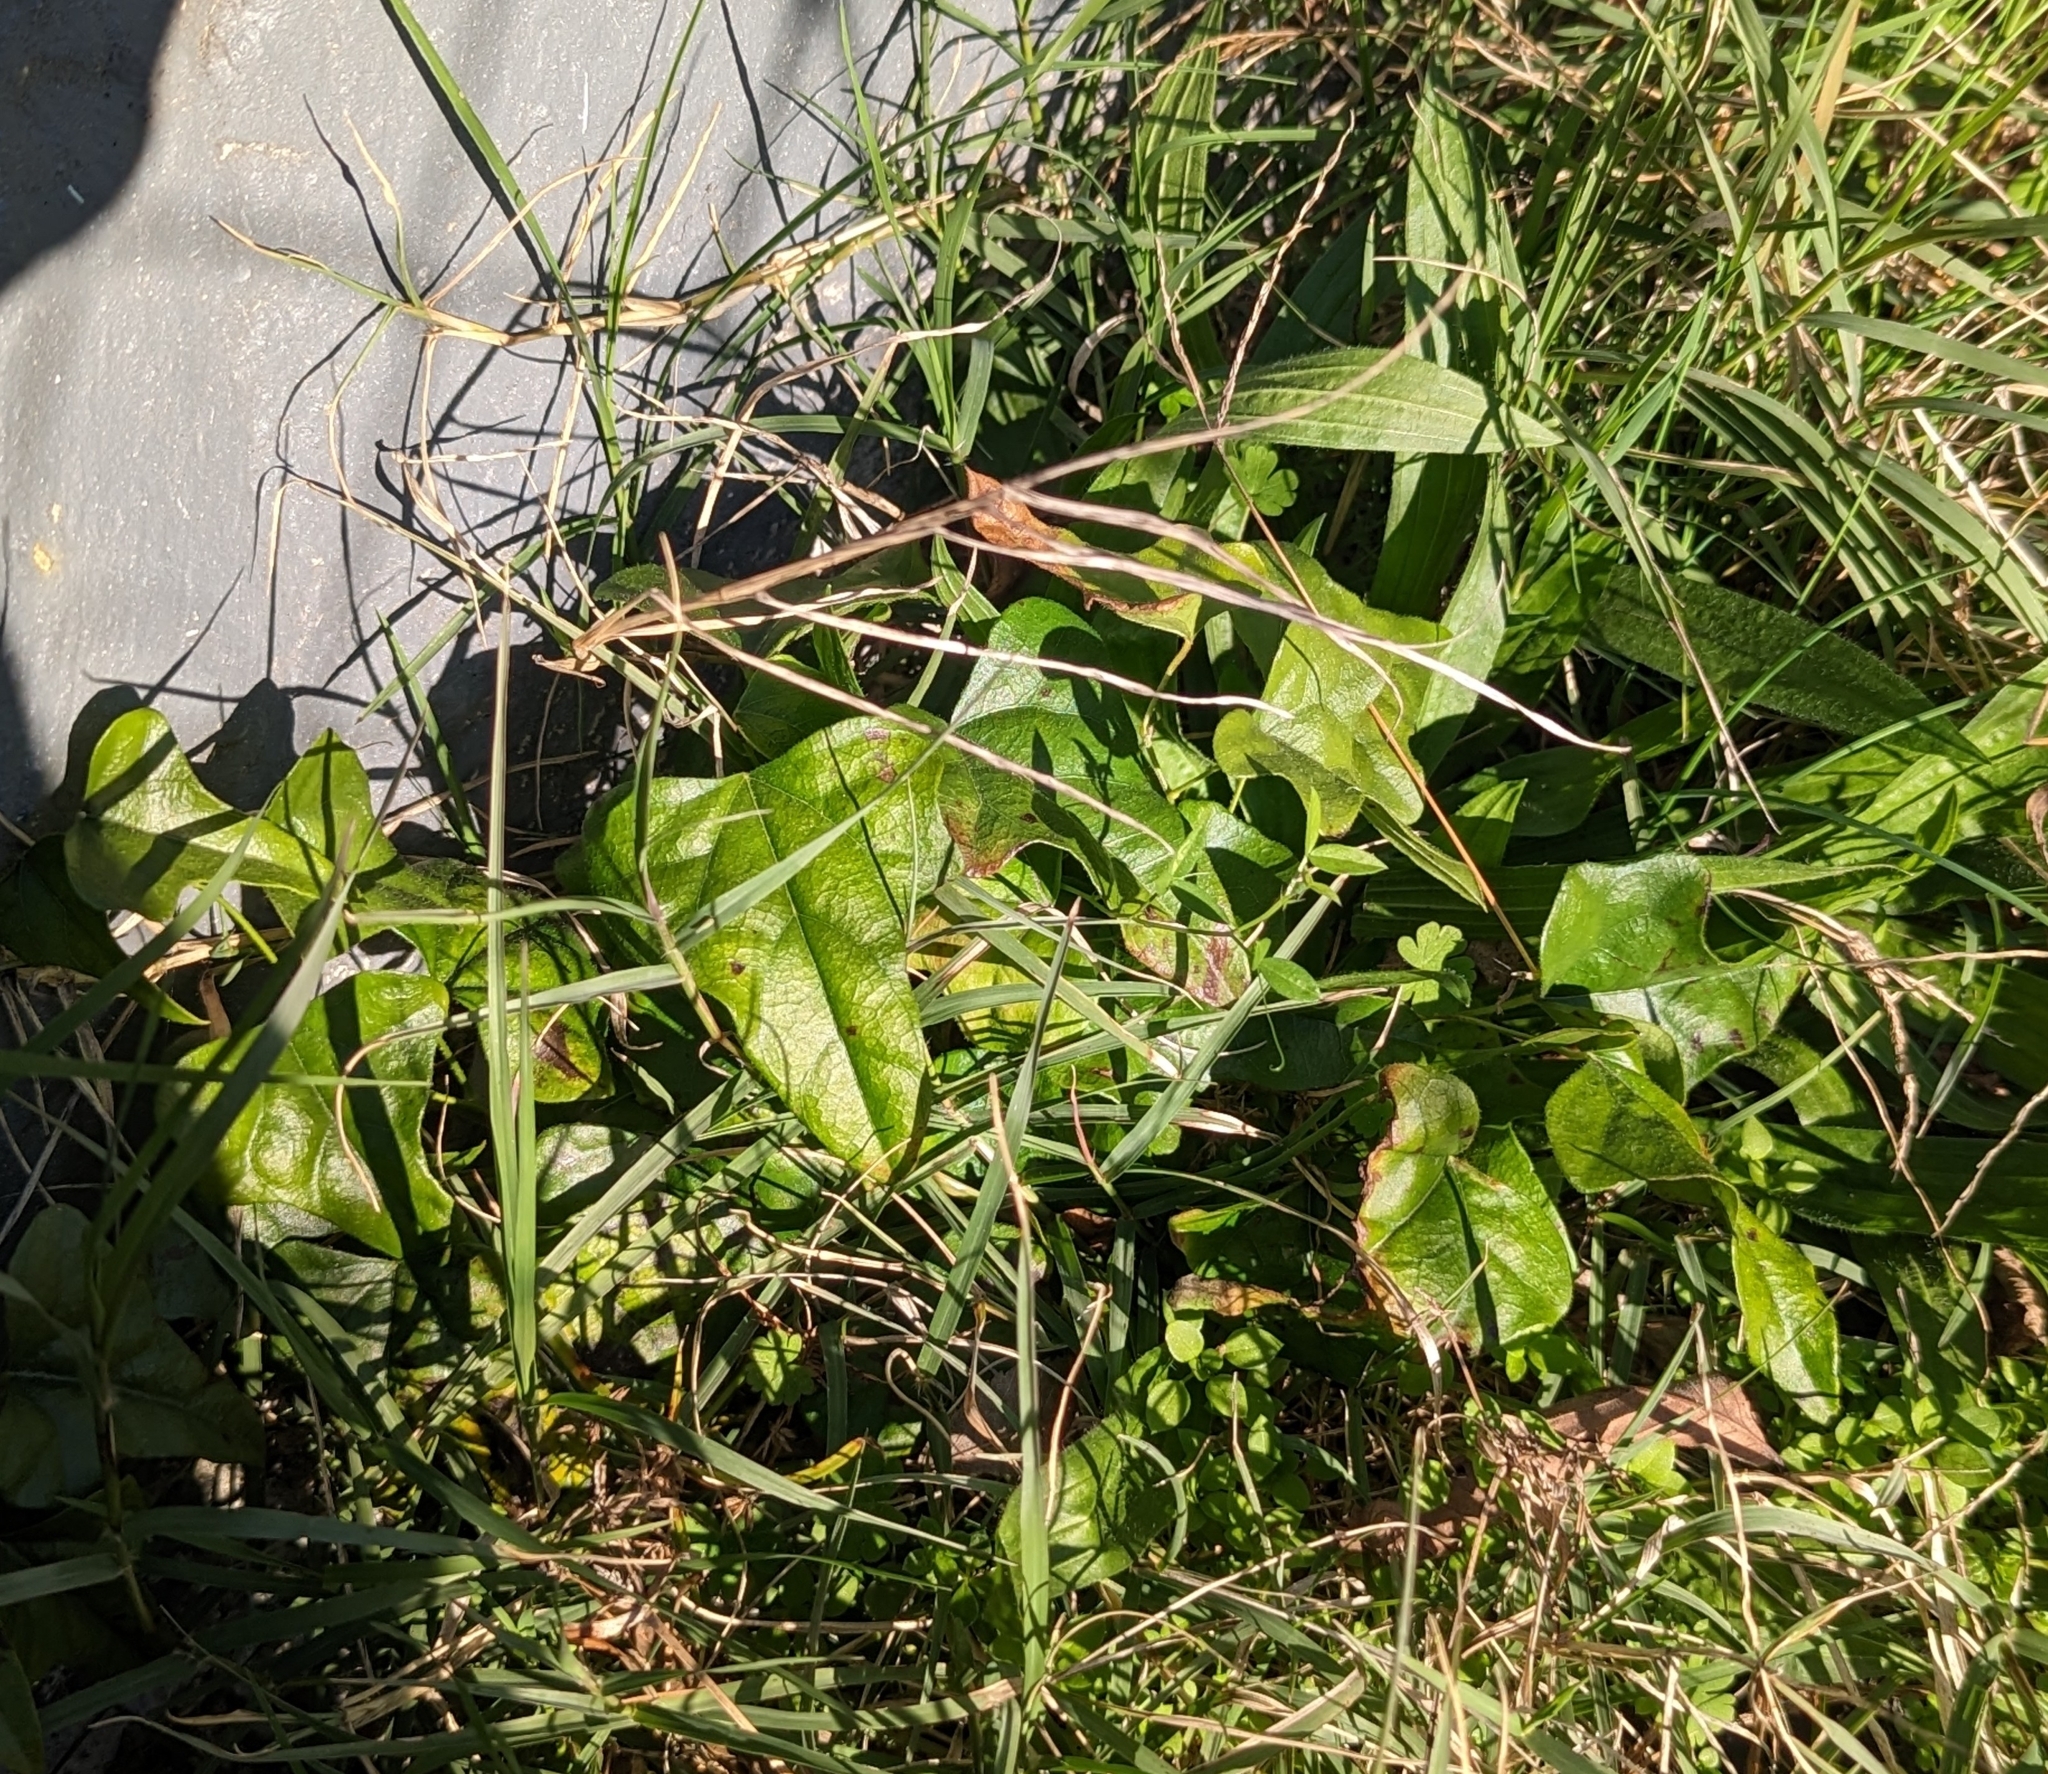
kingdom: Plantae
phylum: Tracheophyta
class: Magnoliopsida
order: Ranunculales
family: Menispermaceae
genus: Cocculus
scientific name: Cocculus carolinus
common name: Carolina moonseed
